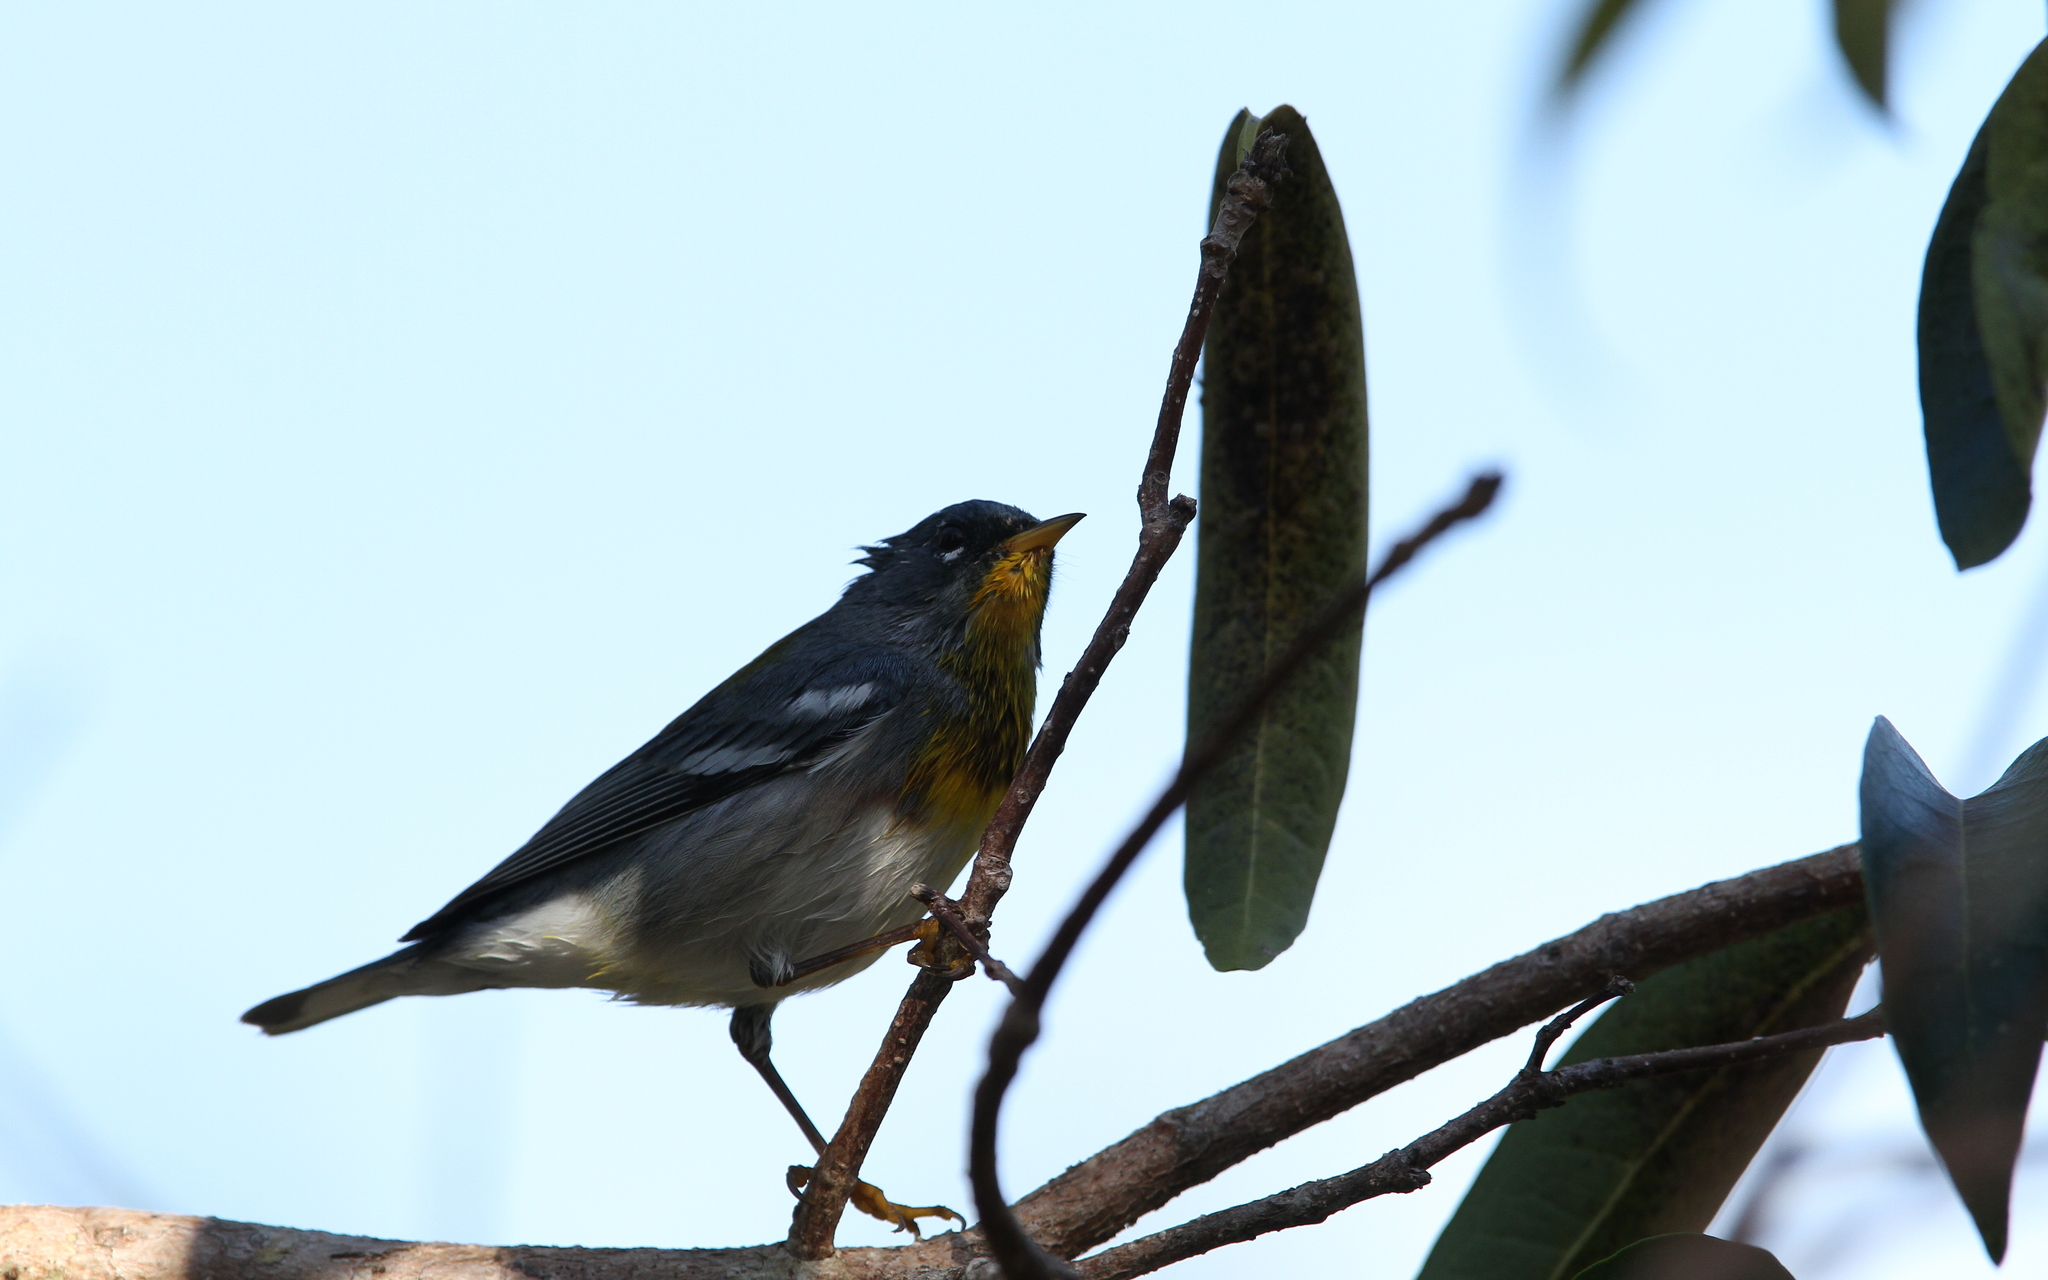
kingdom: Animalia
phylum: Chordata
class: Aves
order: Passeriformes
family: Parulidae
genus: Setophaga
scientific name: Setophaga americana
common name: Northern parula
